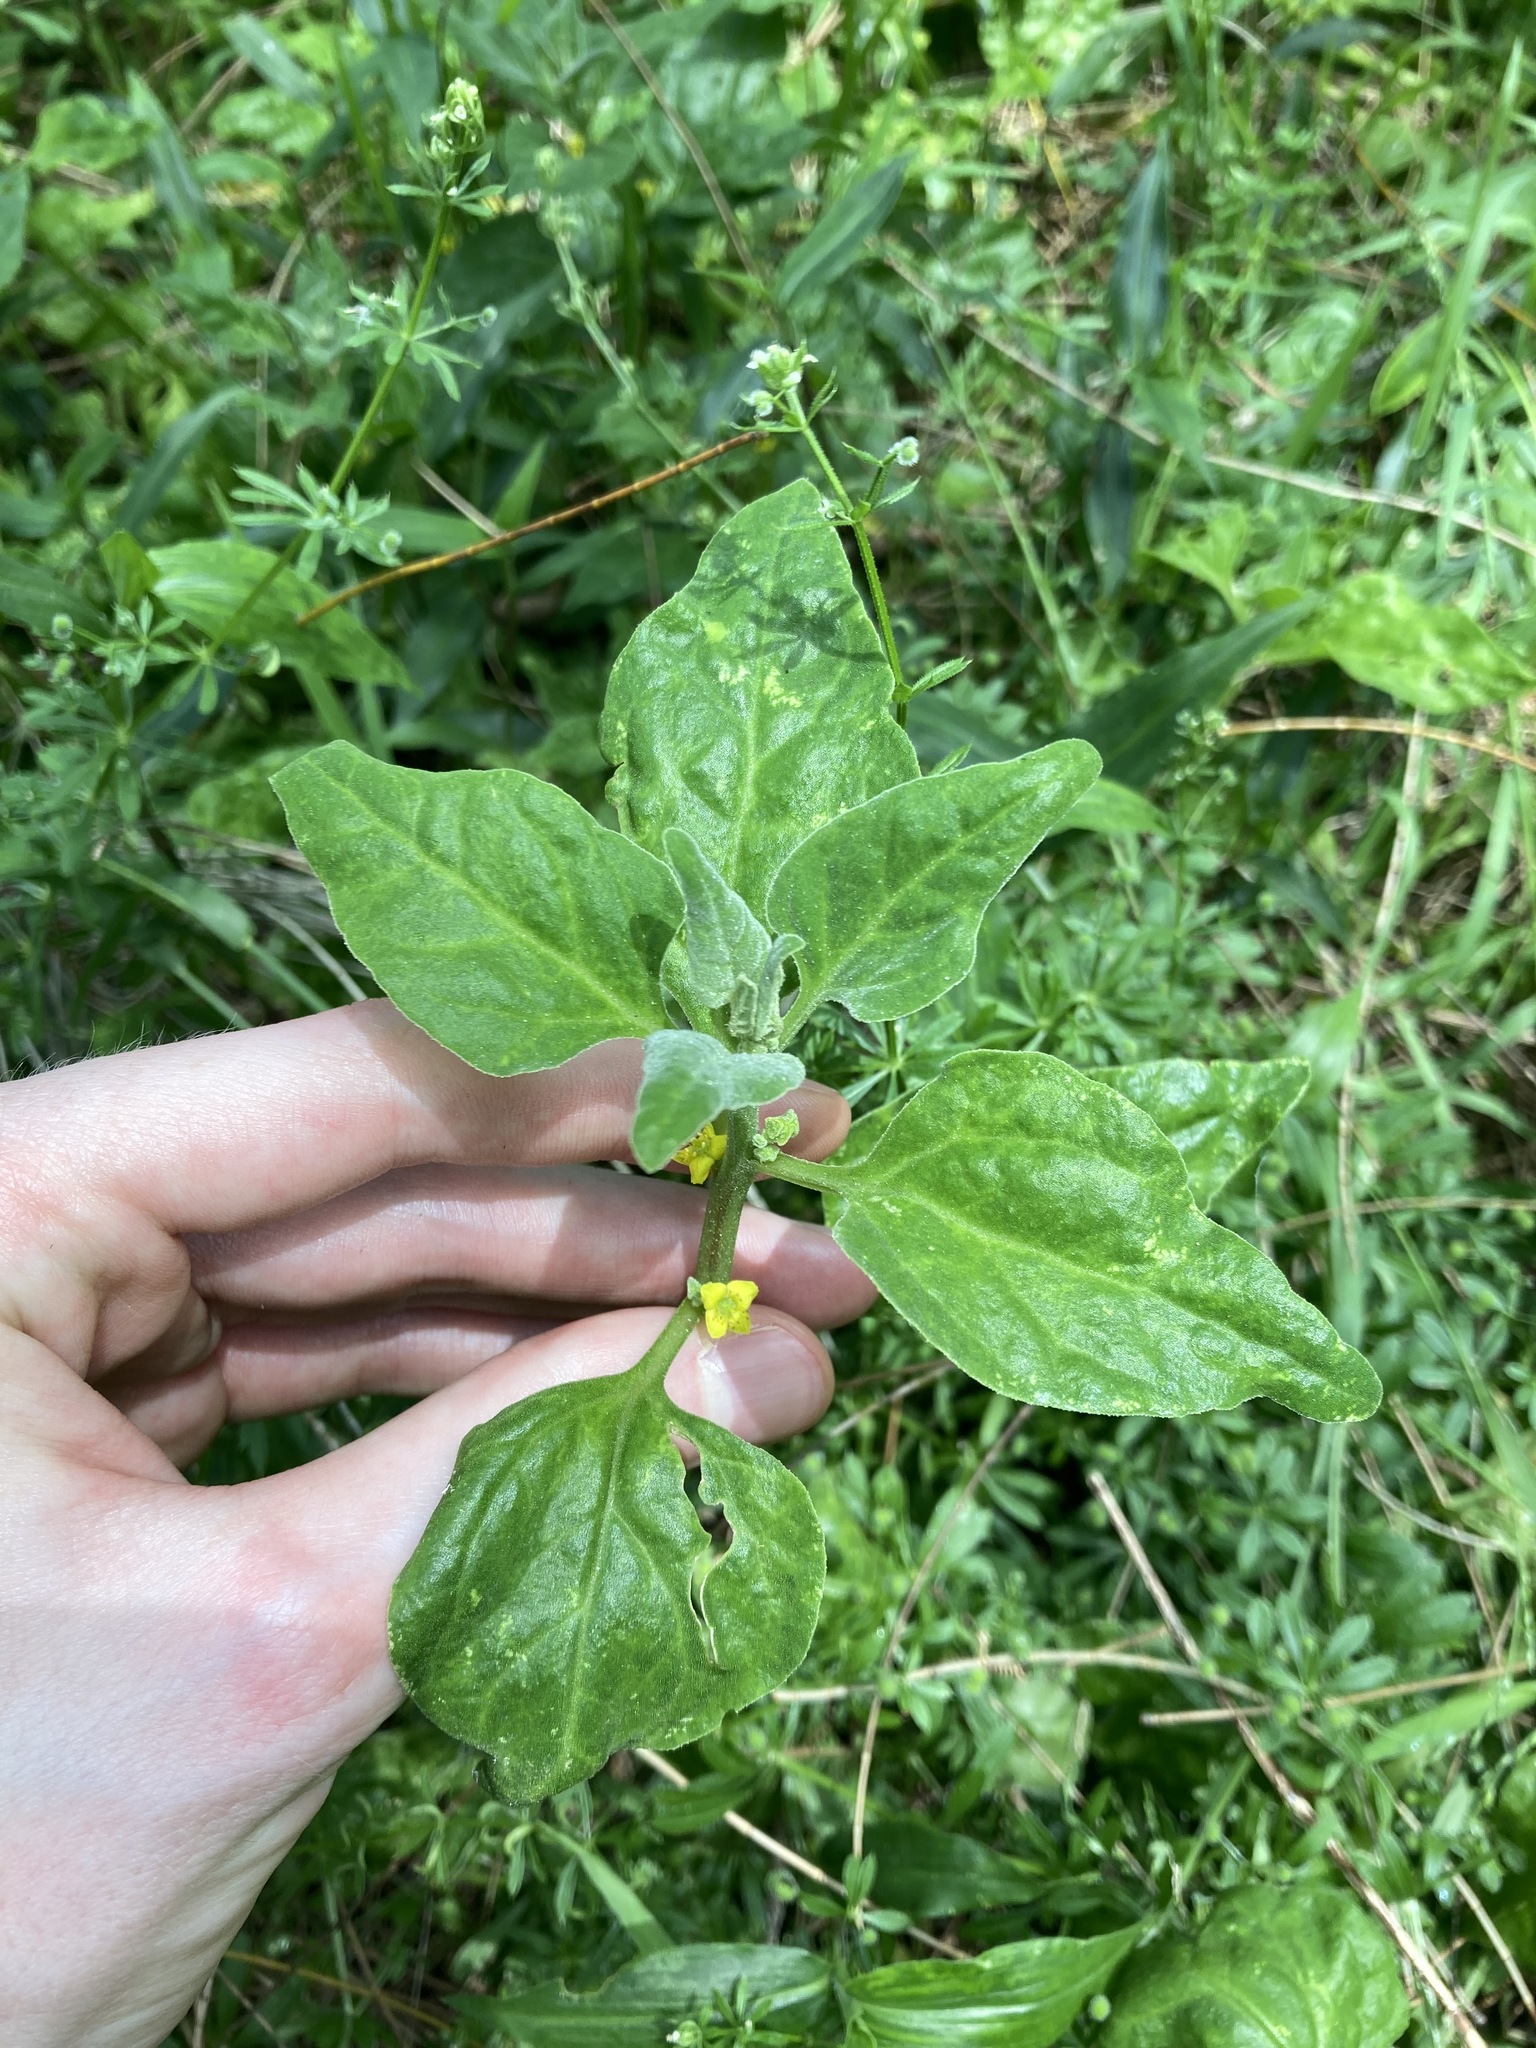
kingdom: Plantae
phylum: Tracheophyta
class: Magnoliopsida
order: Caryophyllales
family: Aizoaceae
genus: Tetragonia
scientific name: Tetragonia tetragonoides
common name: New zealand-spinach
